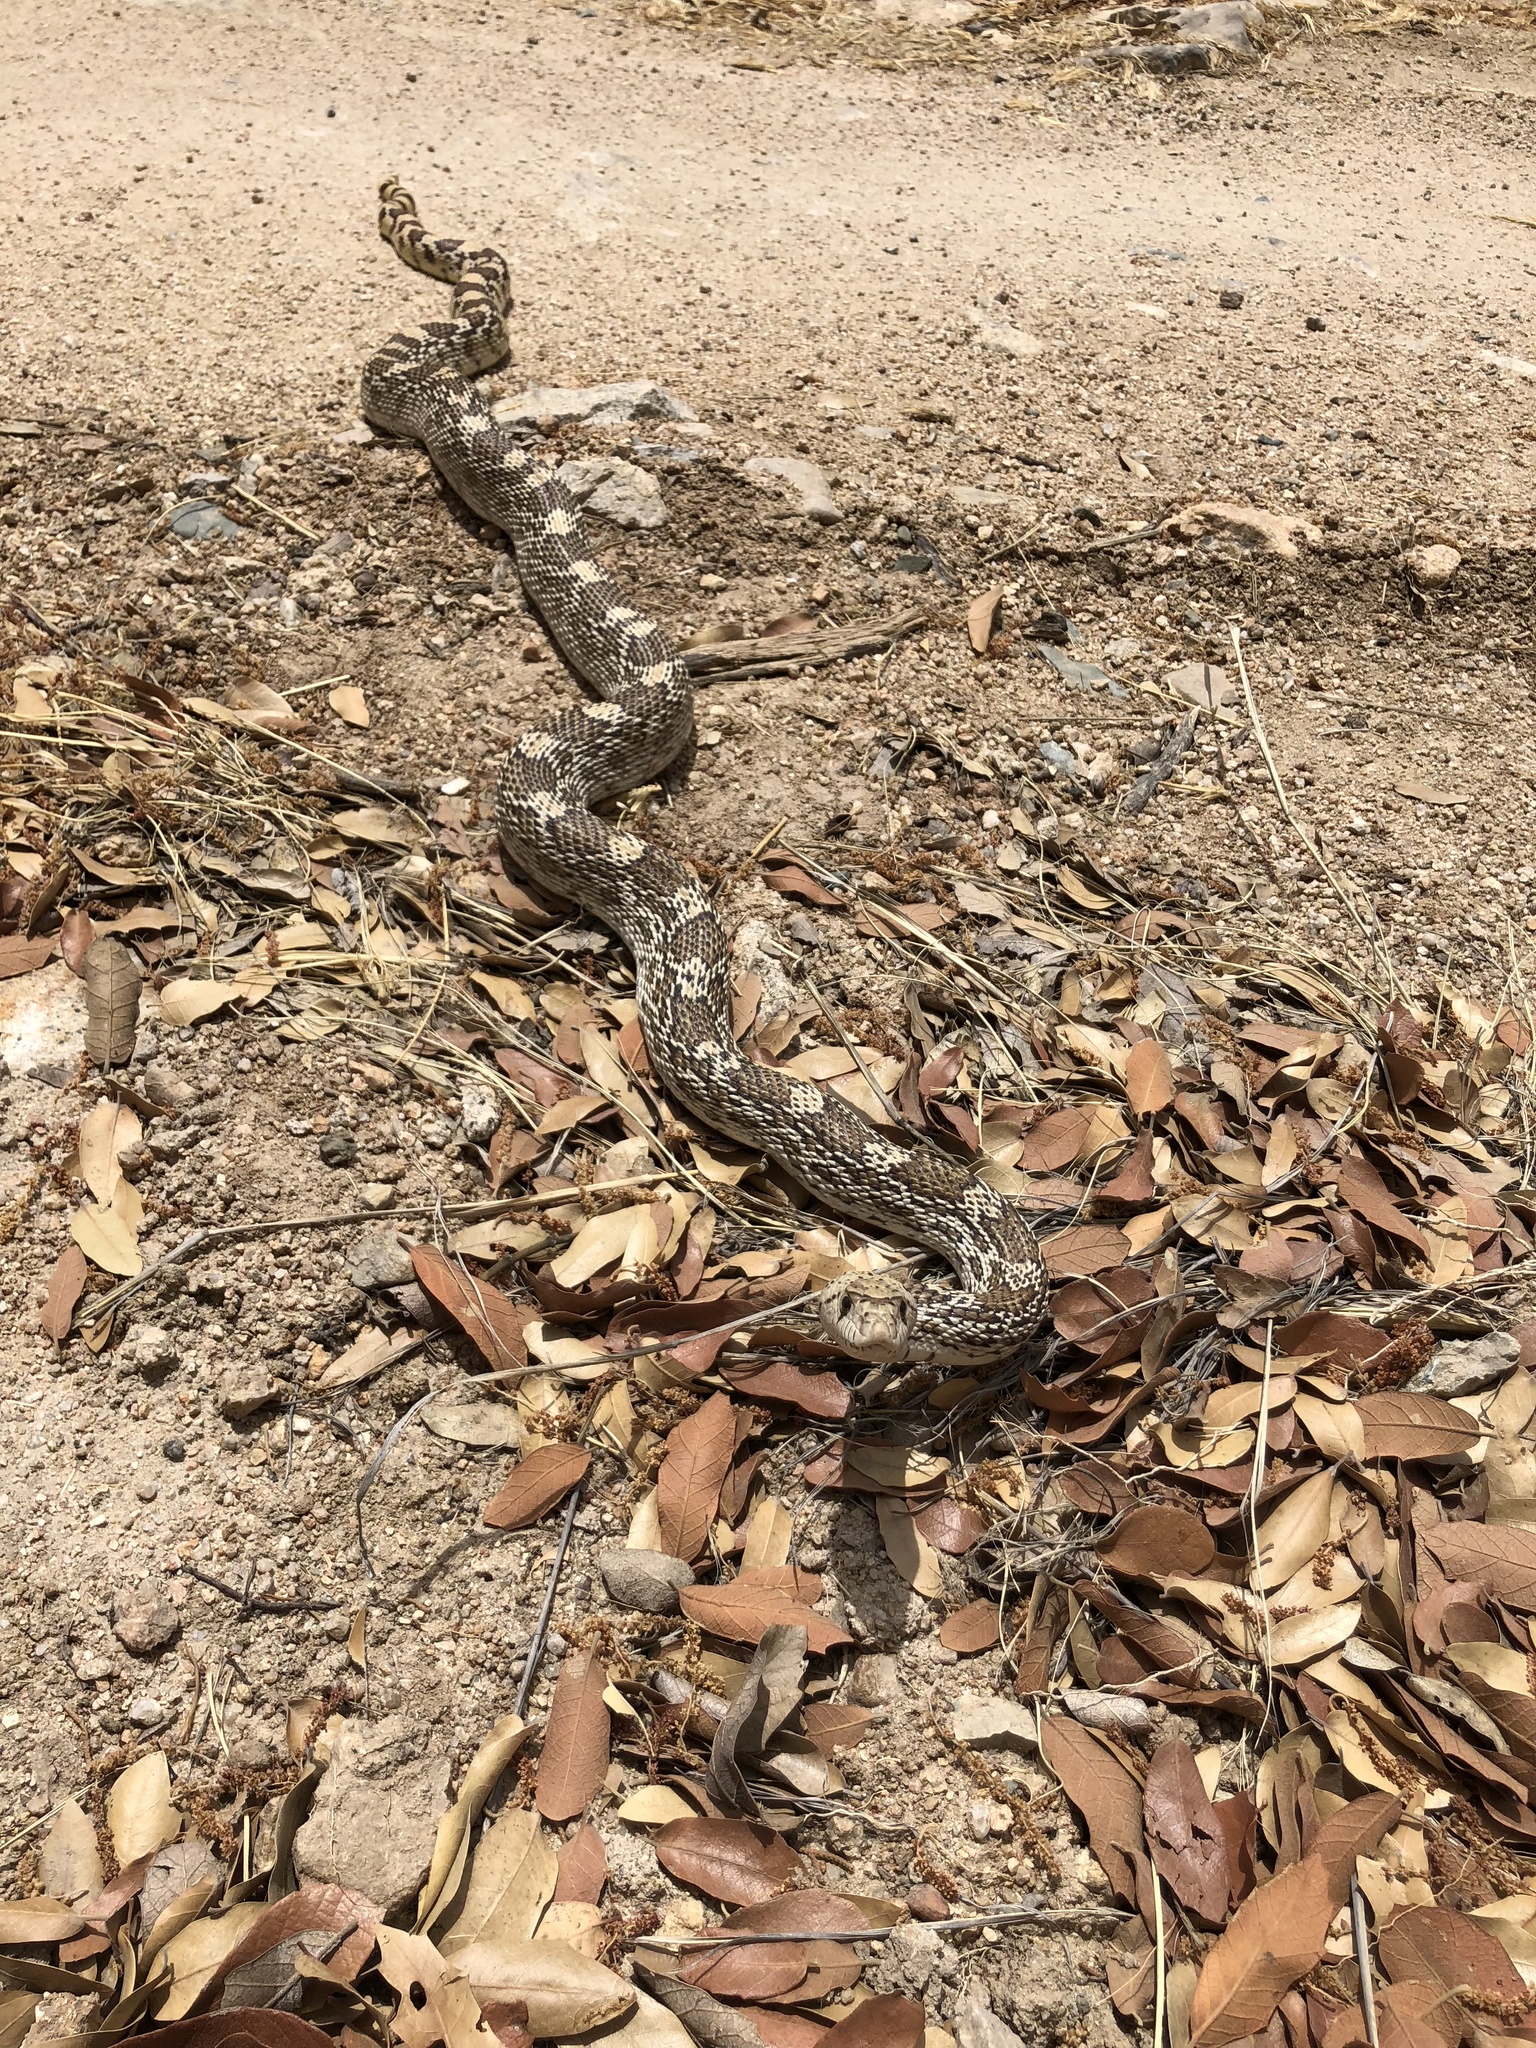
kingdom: Animalia
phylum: Chordata
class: Squamata
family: Colubridae
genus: Pituophis
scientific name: Pituophis catenifer
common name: Gopher snake
